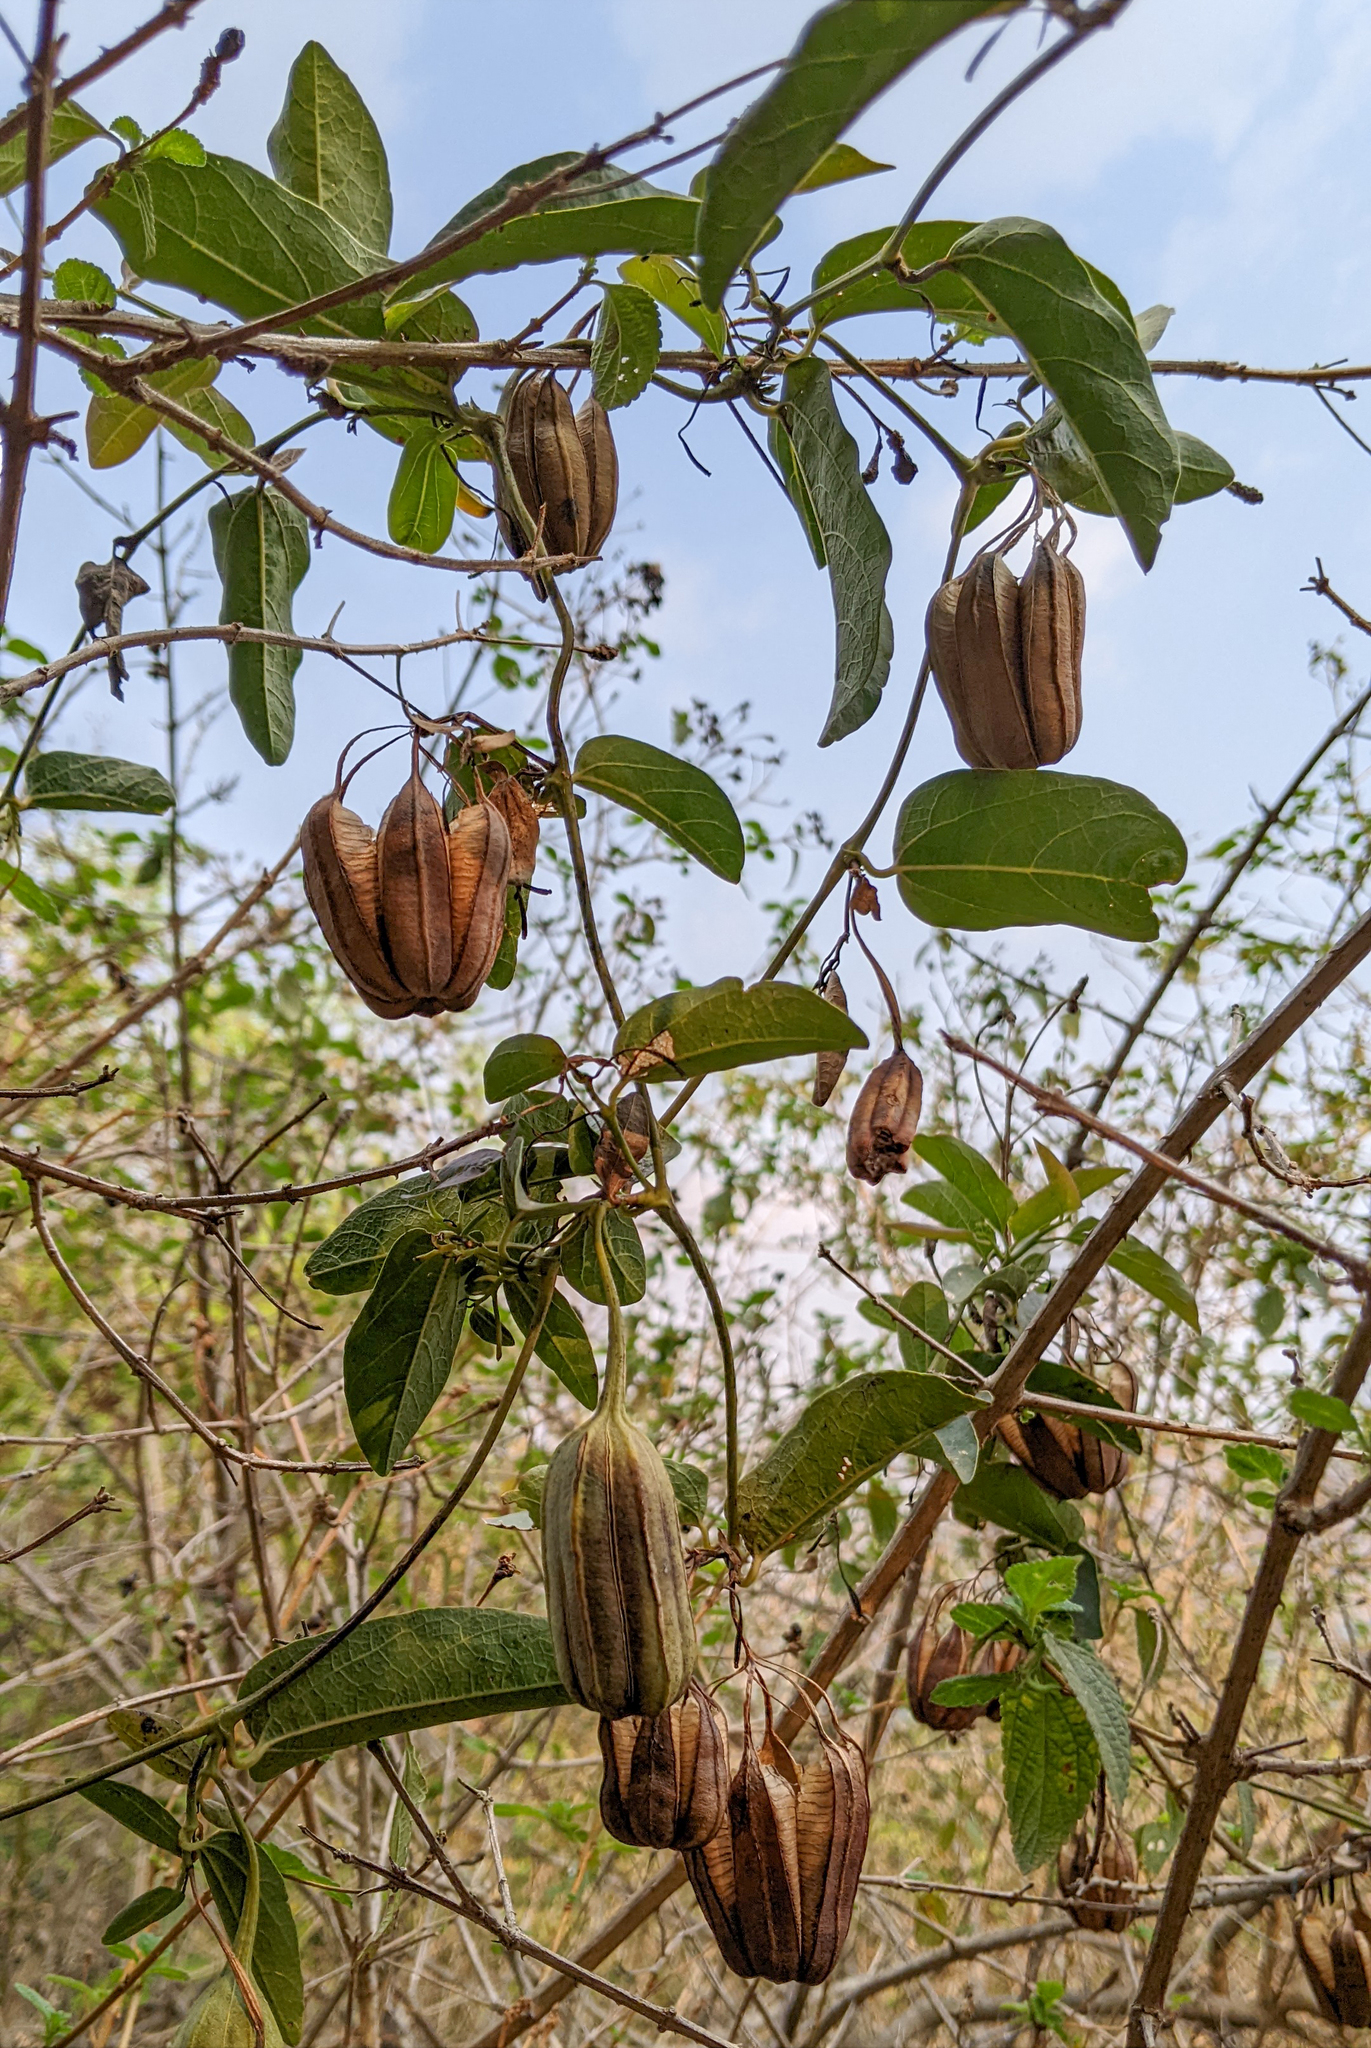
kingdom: Plantae
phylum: Tracheophyta
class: Magnoliopsida
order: Piperales
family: Aristolochiaceae
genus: Aristolochia
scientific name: Aristolochia indica
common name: Indian birthwort
